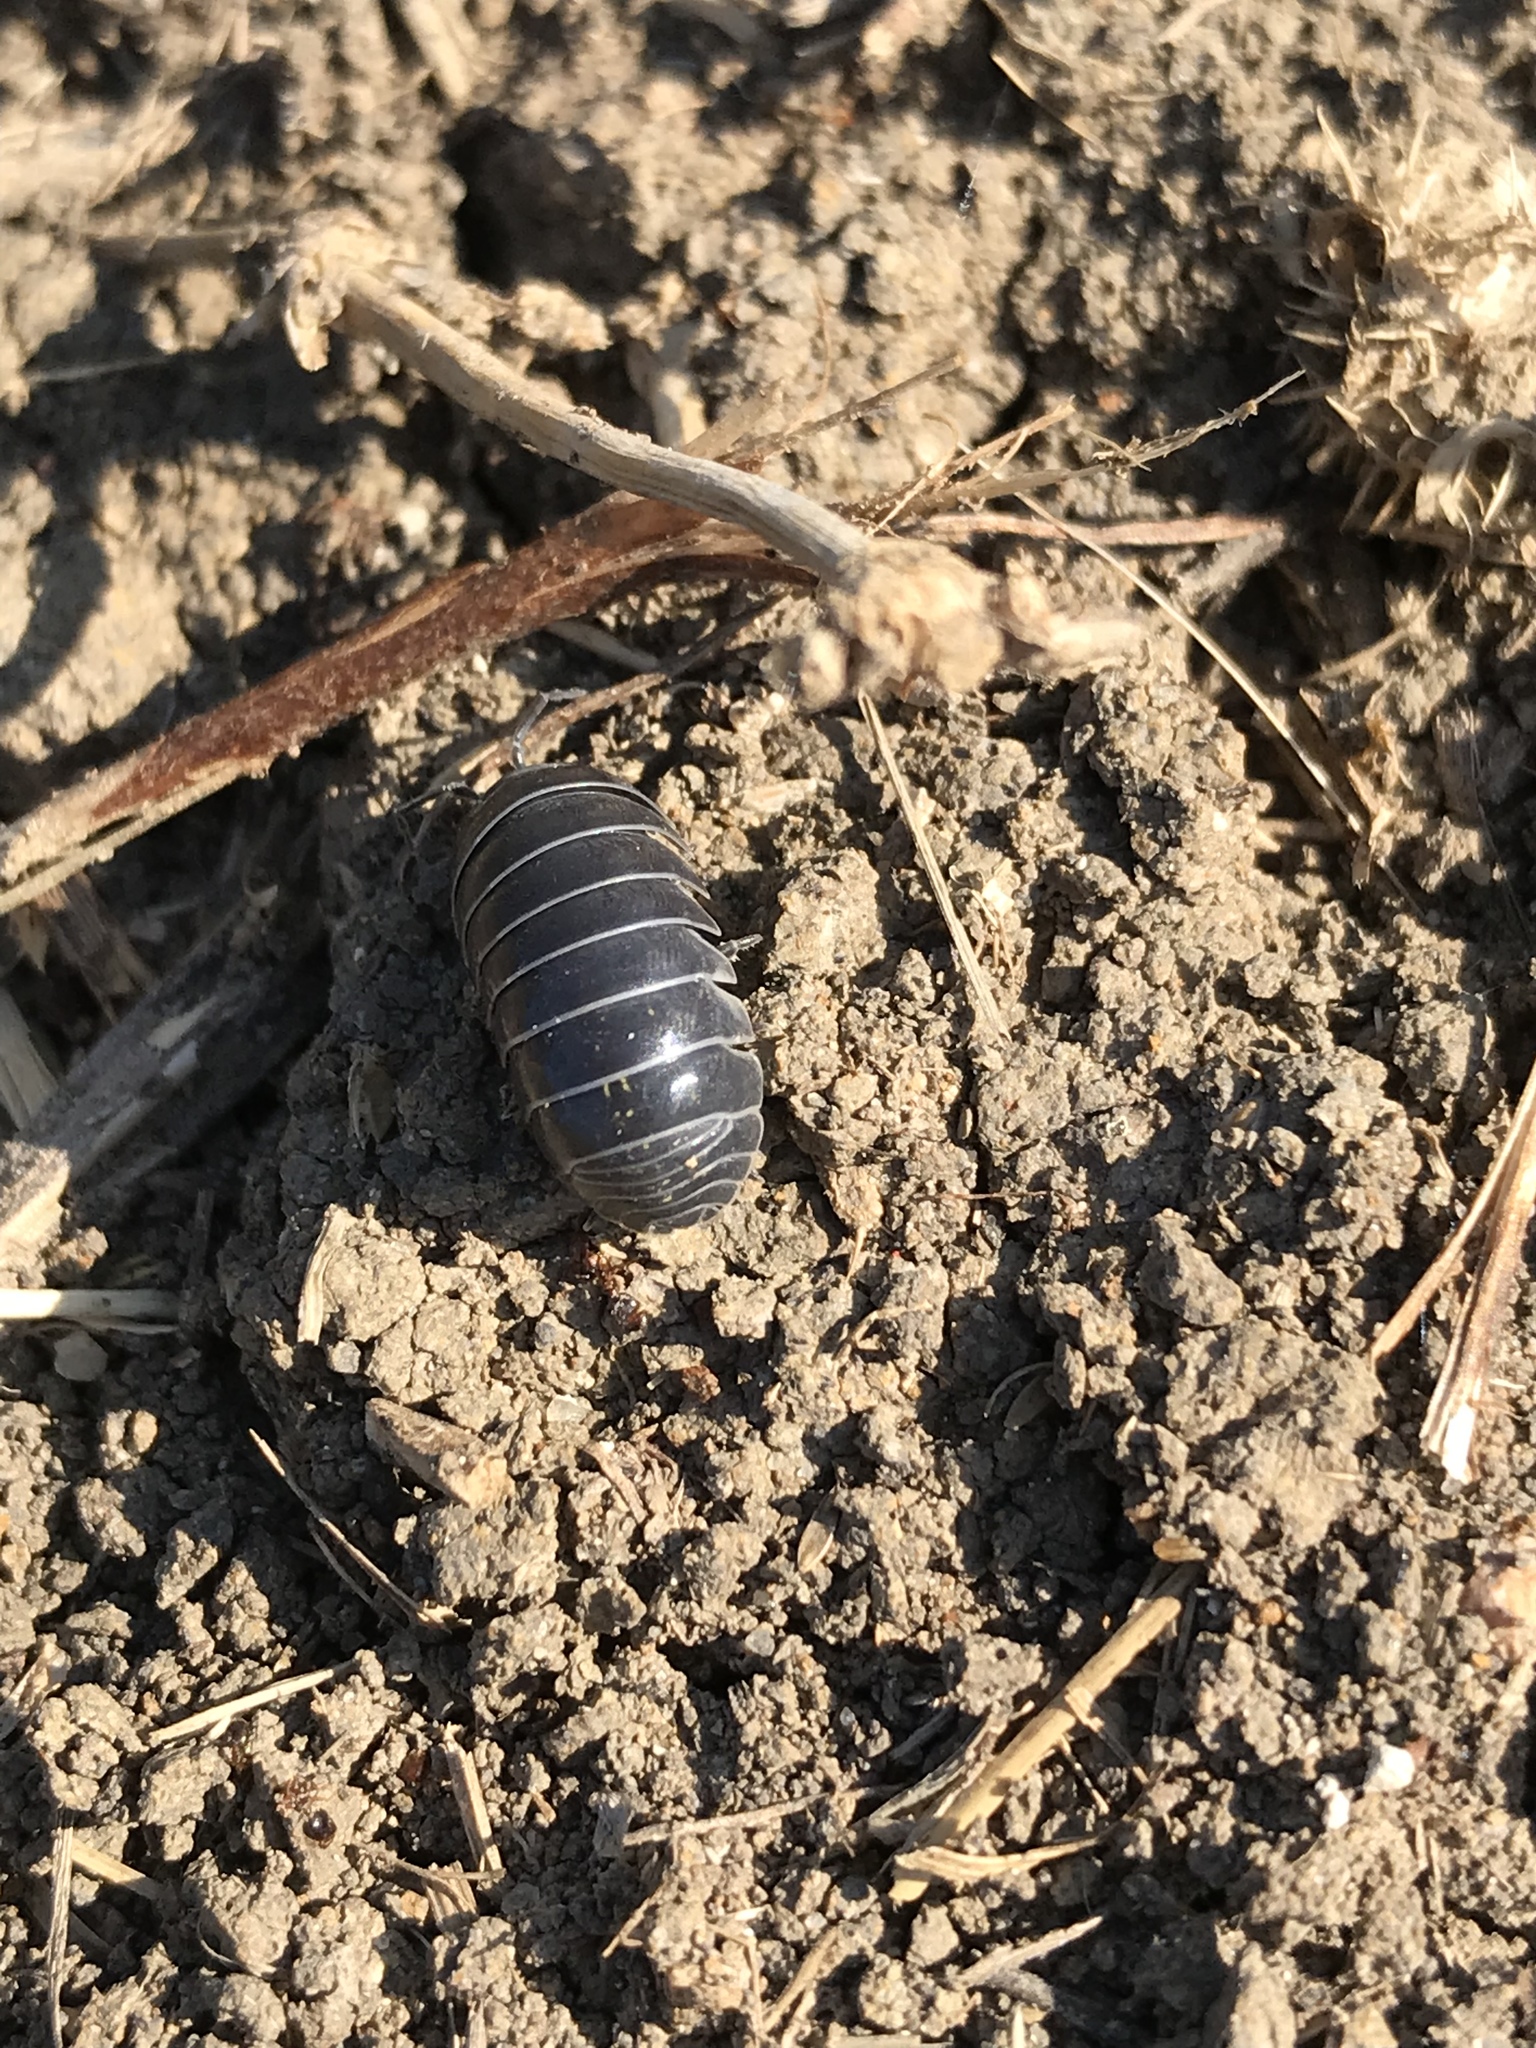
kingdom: Animalia
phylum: Arthropoda
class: Malacostraca
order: Isopoda
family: Armadillidiidae
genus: Armadillidium
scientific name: Armadillidium vulgare
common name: Common pill woodlouse
